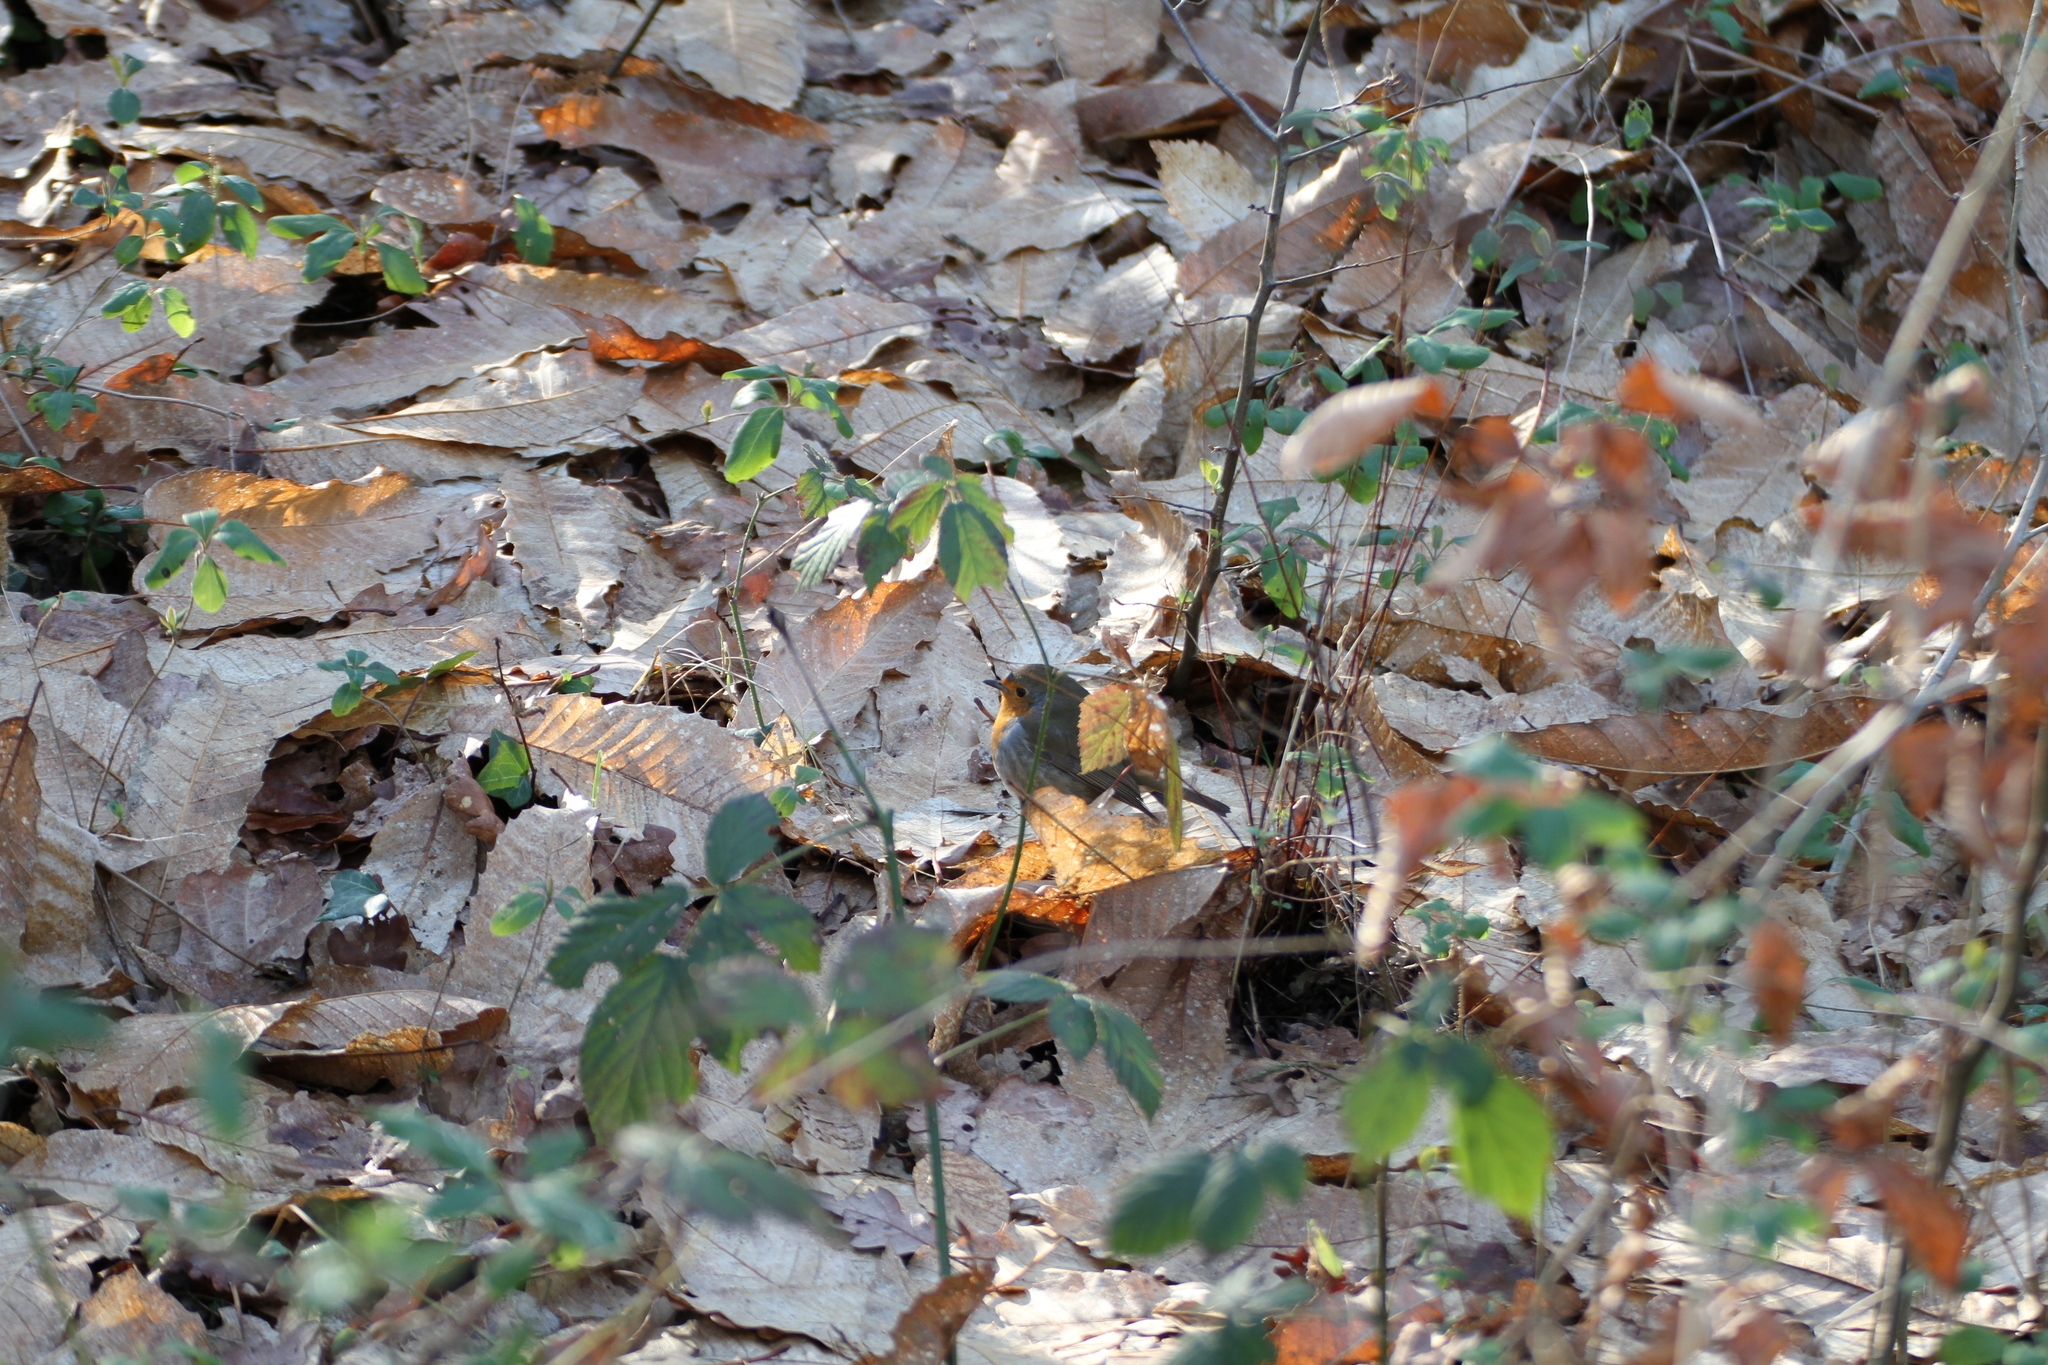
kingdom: Animalia
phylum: Chordata
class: Aves
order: Passeriformes
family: Muscicapidae
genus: Erithacus
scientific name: Erithacus rubecula
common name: European robin
